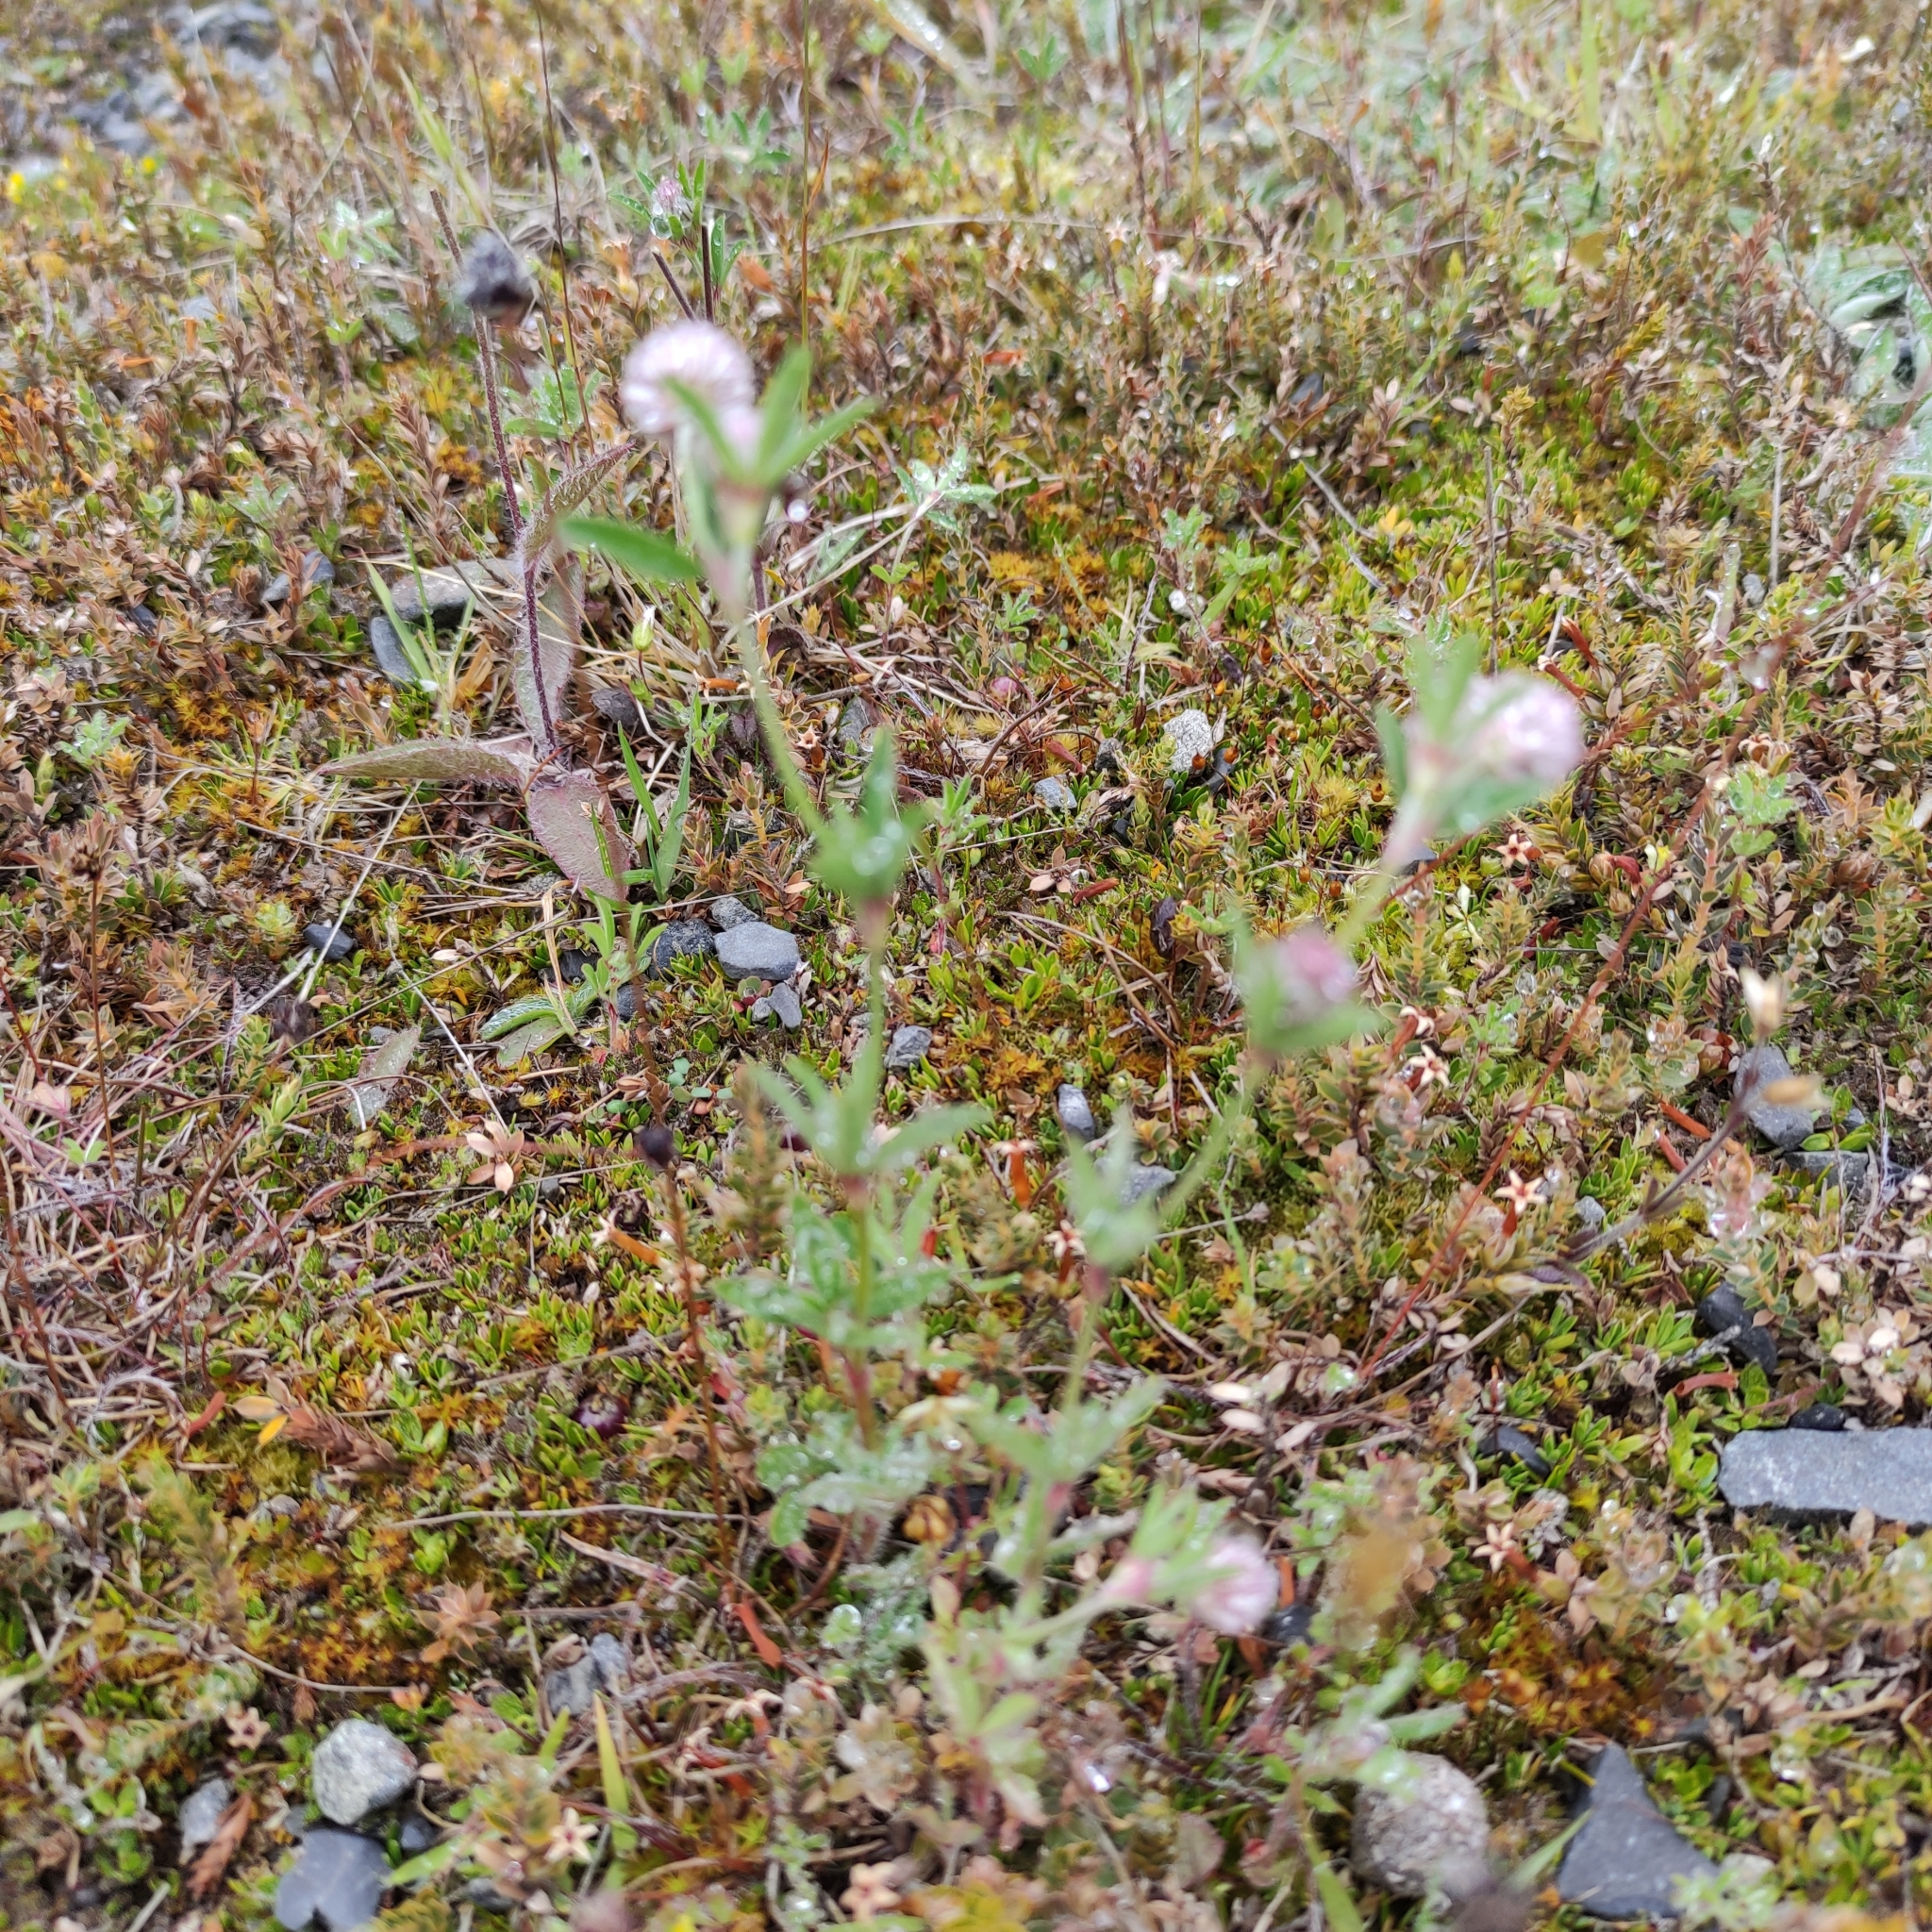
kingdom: Plantae
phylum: Tracheophyta
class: Magnoliopsida
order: Fabales
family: Fabaceae
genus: Trifolium
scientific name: Trifolium arvense
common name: Hare's-foot clover
